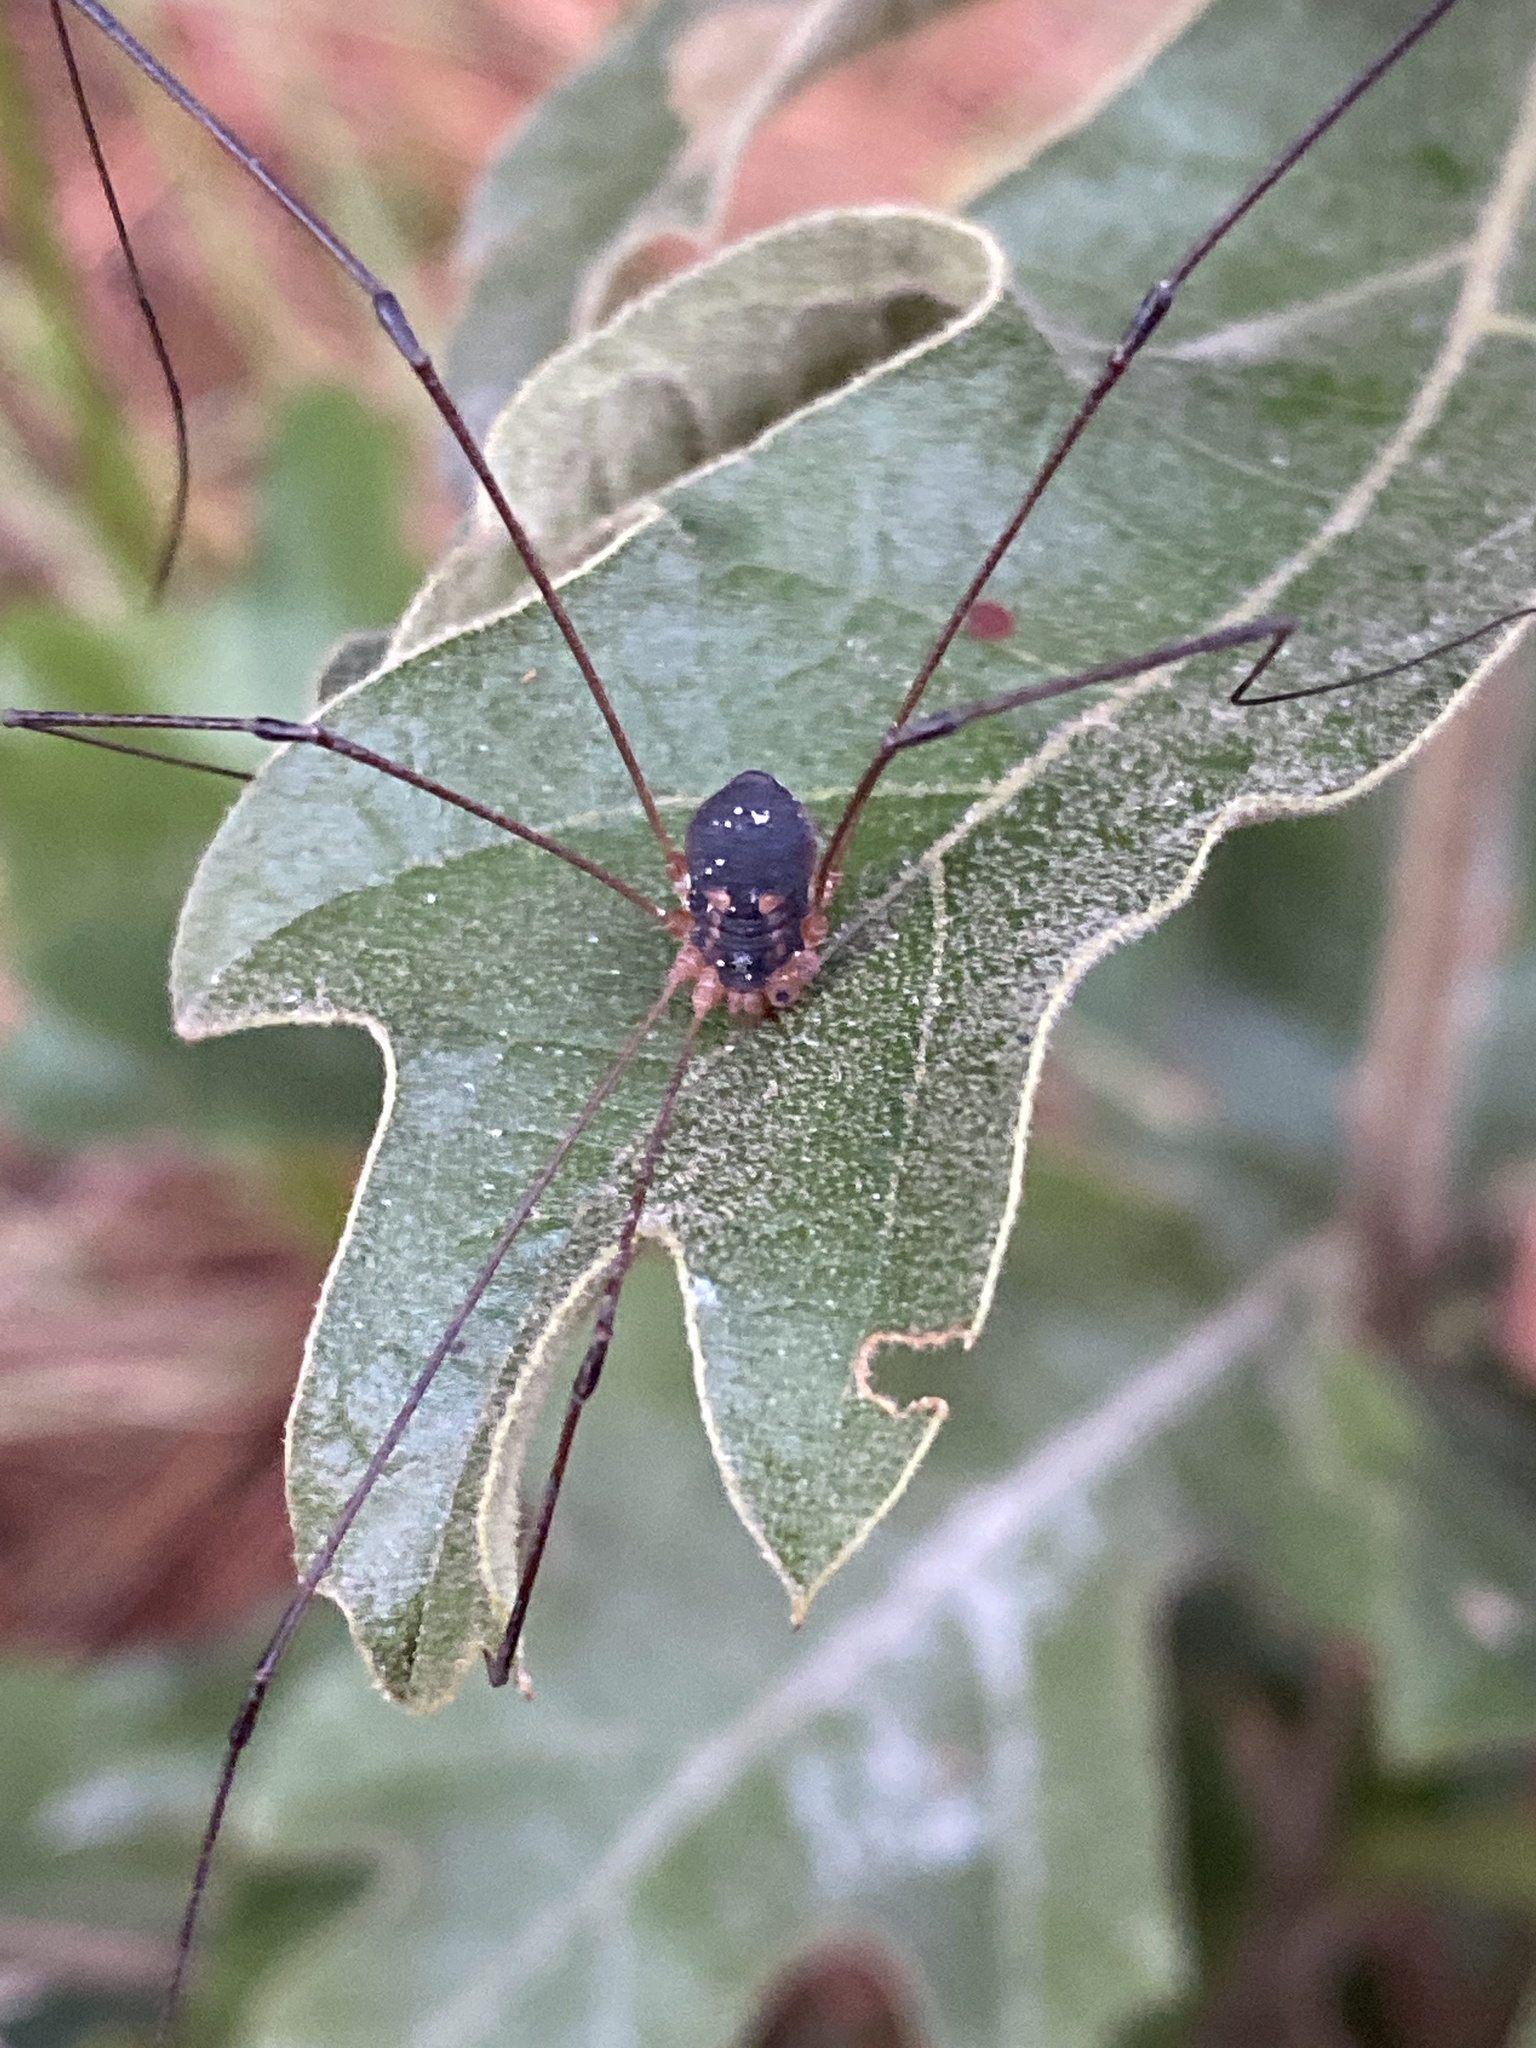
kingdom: Animalia
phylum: Arthropoda
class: Arachnida
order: Opiliones
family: Sclerosomatidae
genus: Leiobunum
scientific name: Leiobunum bimaculatum
